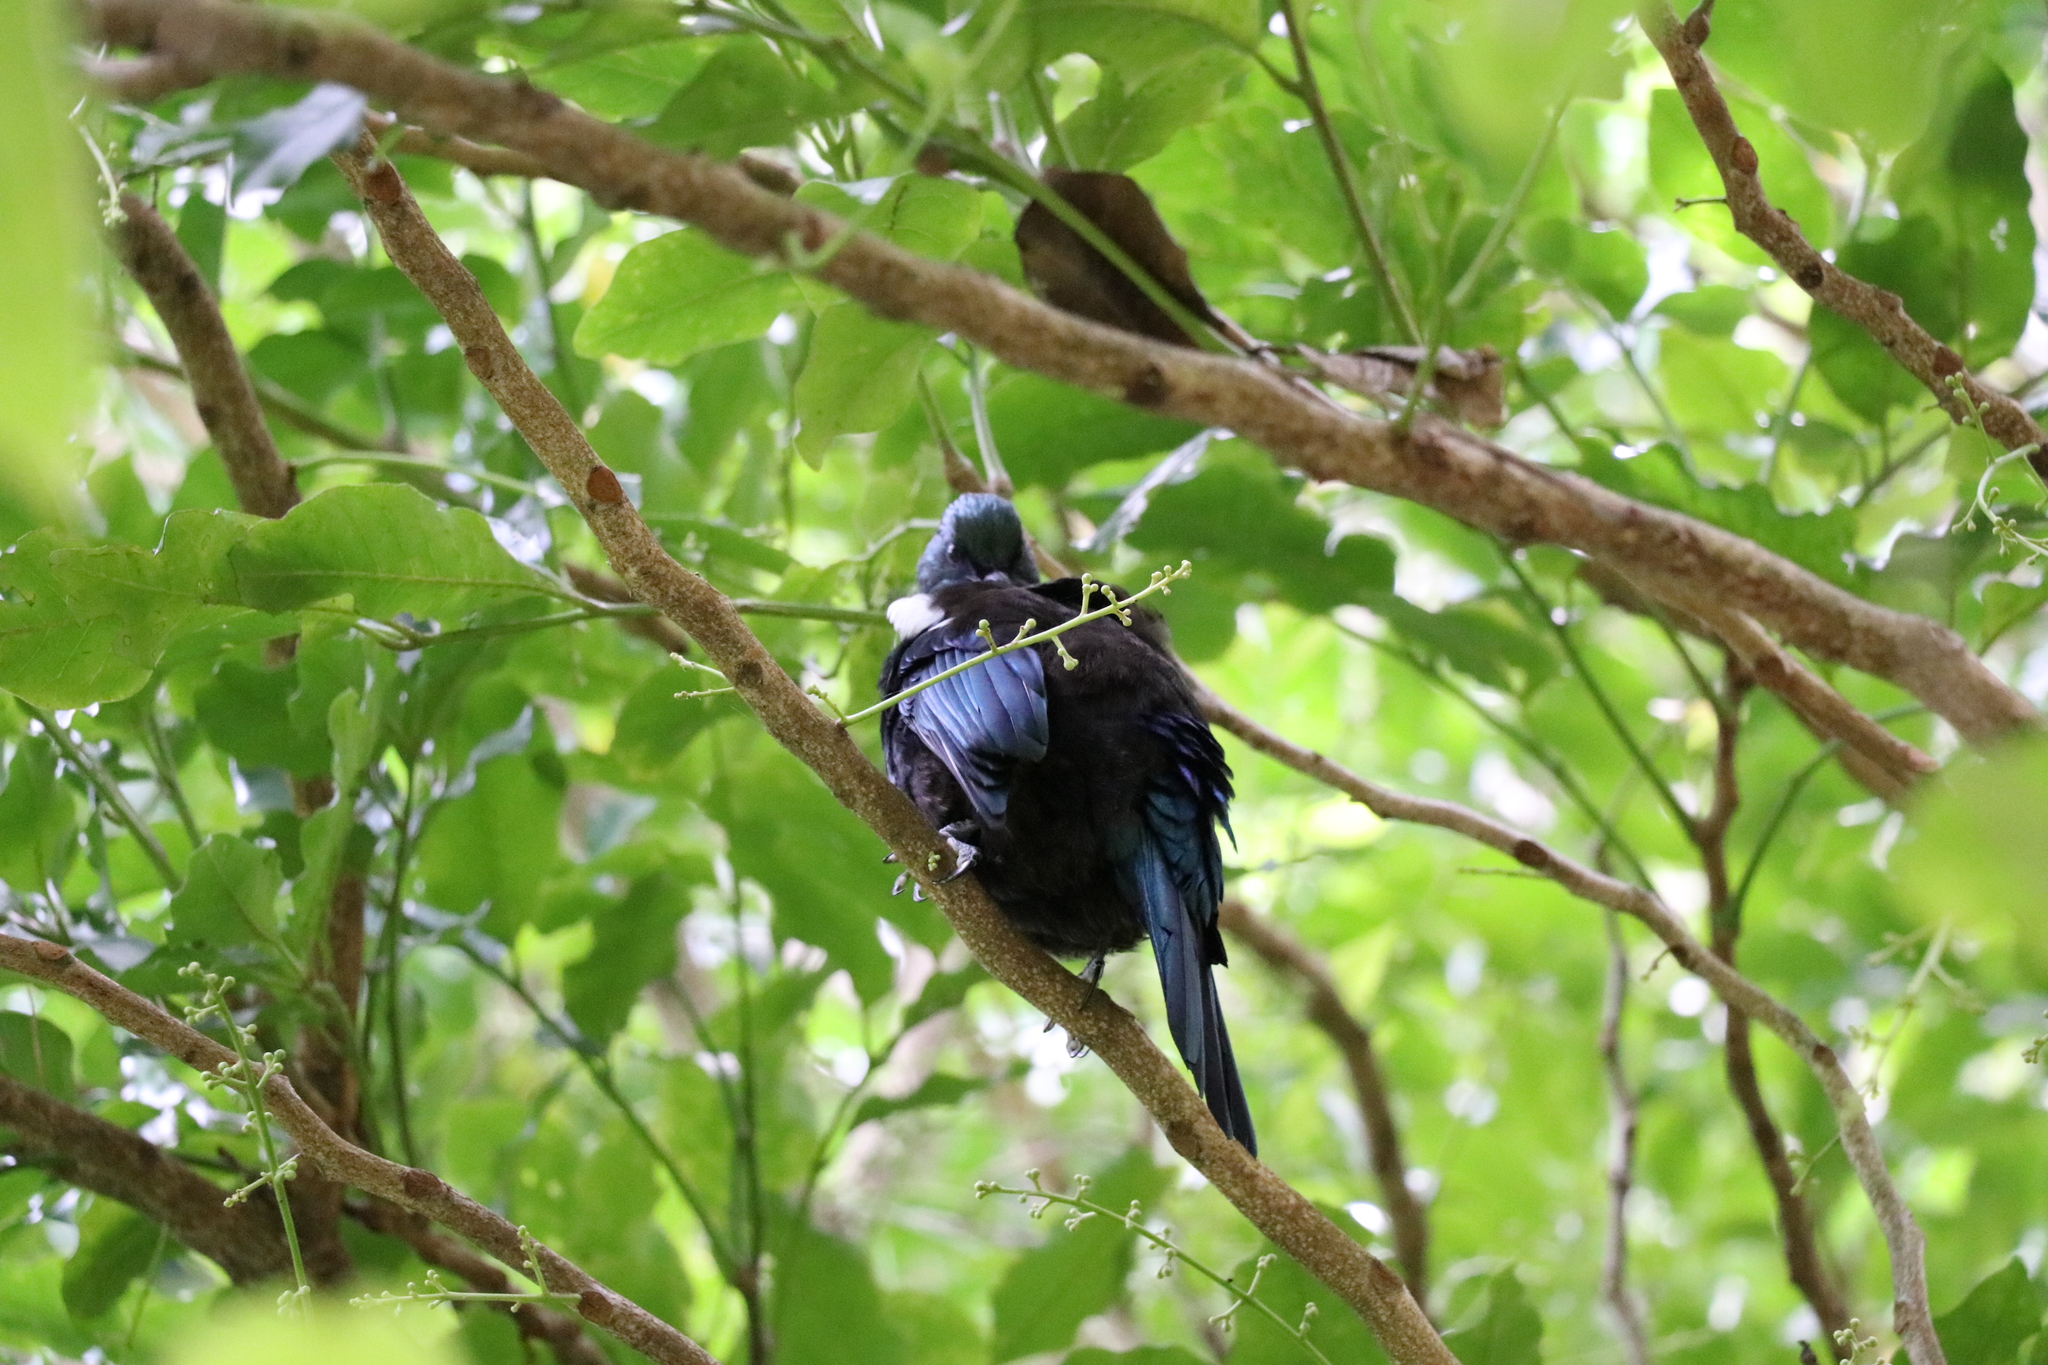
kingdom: Animalia
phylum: Chordata
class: Aves
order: Passeriformes
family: Meliphagidae
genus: Prosthemadera
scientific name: Prosthemadera novaeseelandiae
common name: Tui
